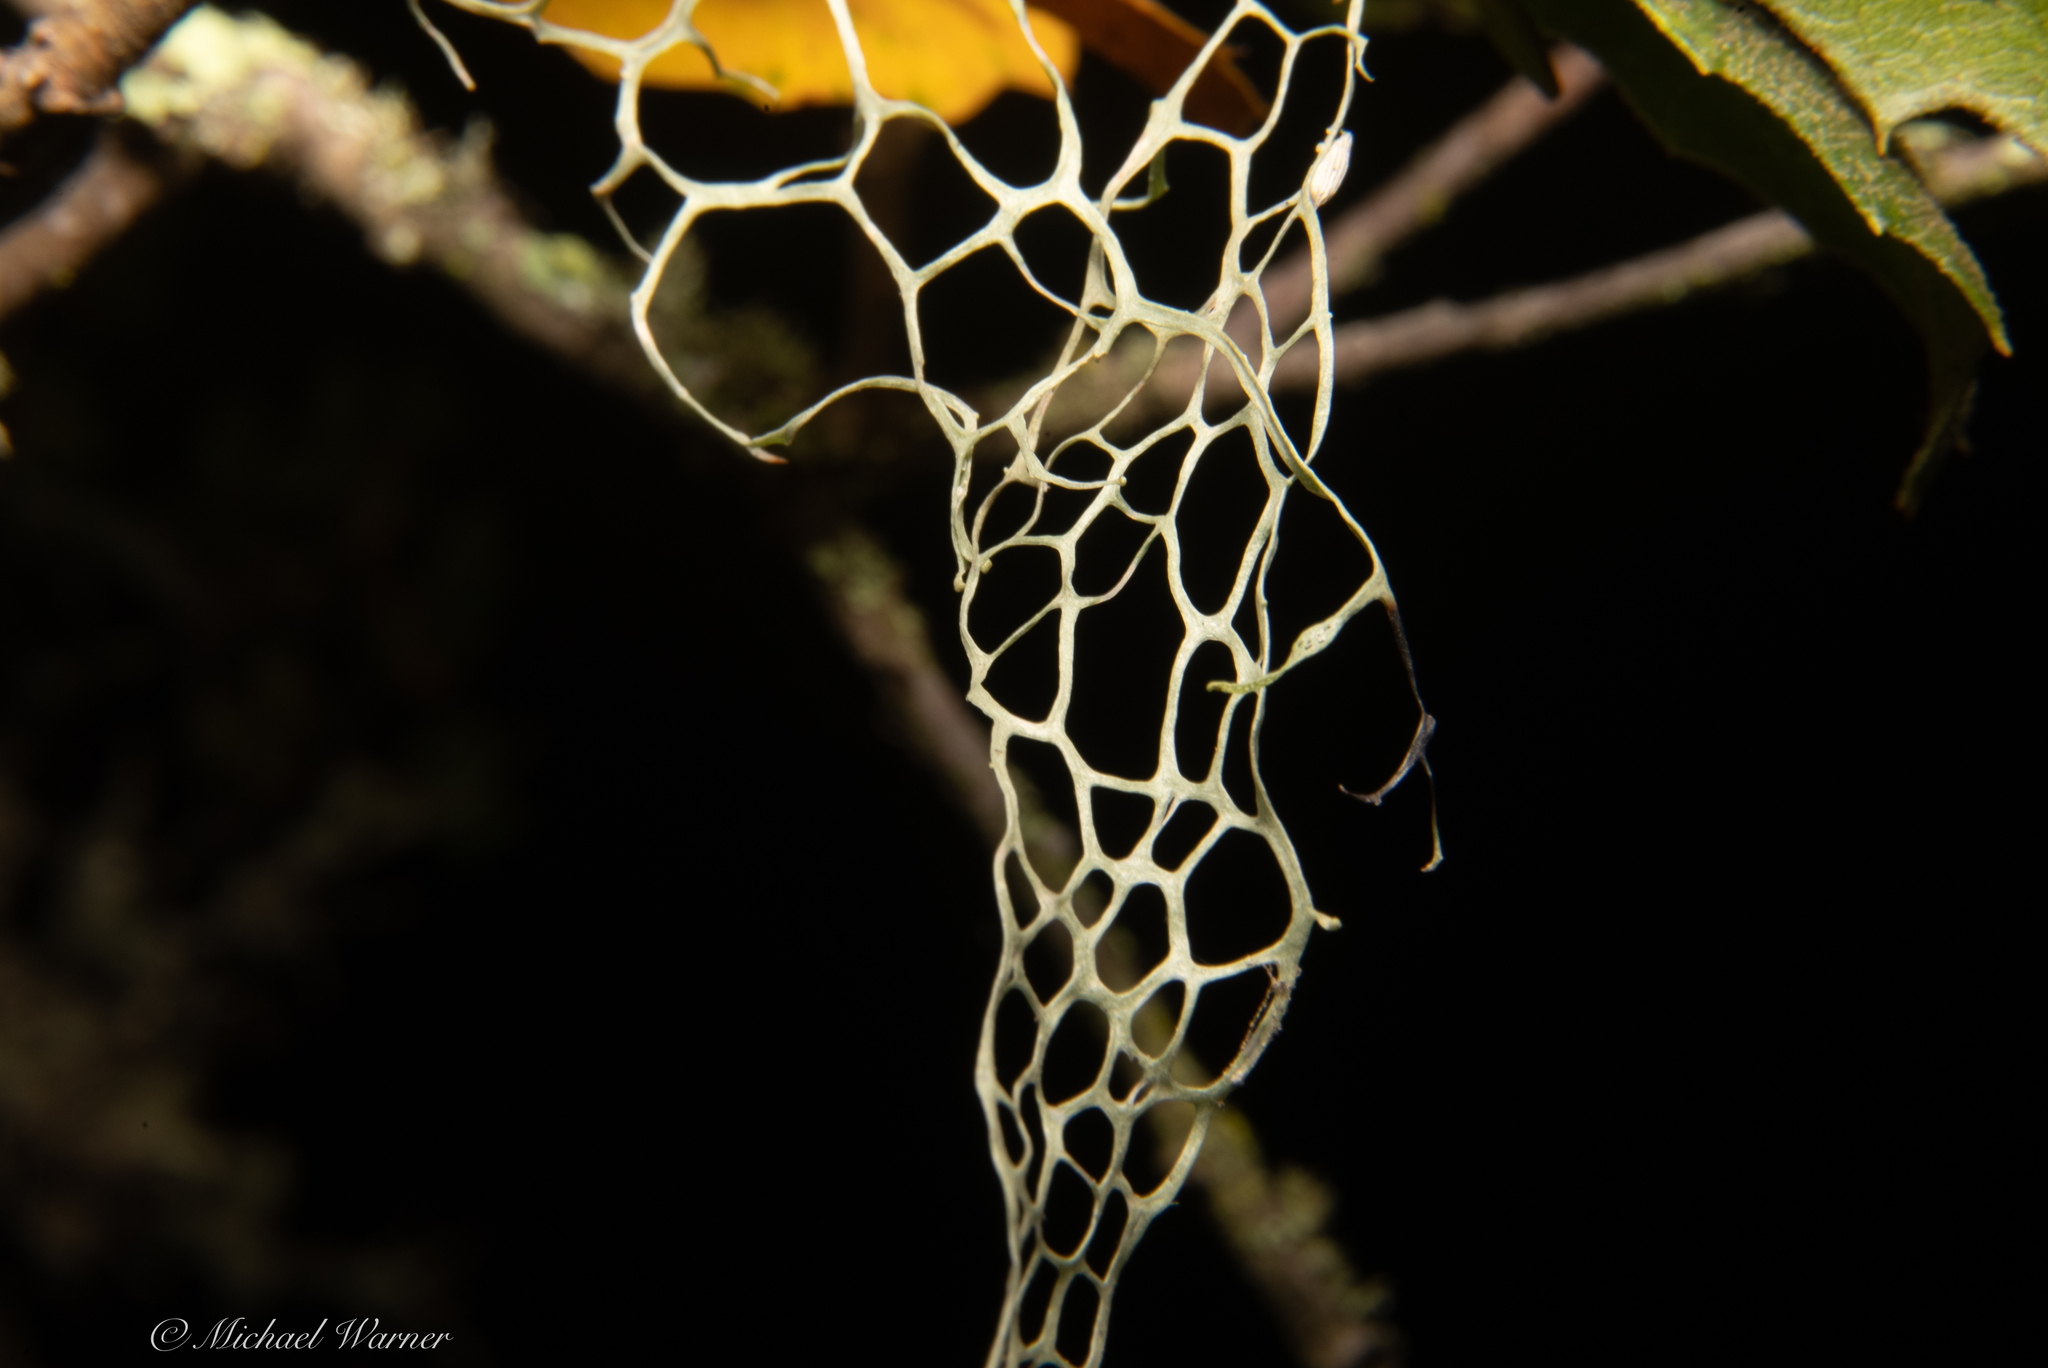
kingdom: Fungi
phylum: Ascomycota
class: Lecanoromycetes
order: Lecanorales
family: Ramalinaceae
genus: Ramalina
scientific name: Ramalina menziesii
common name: Lace lichen
